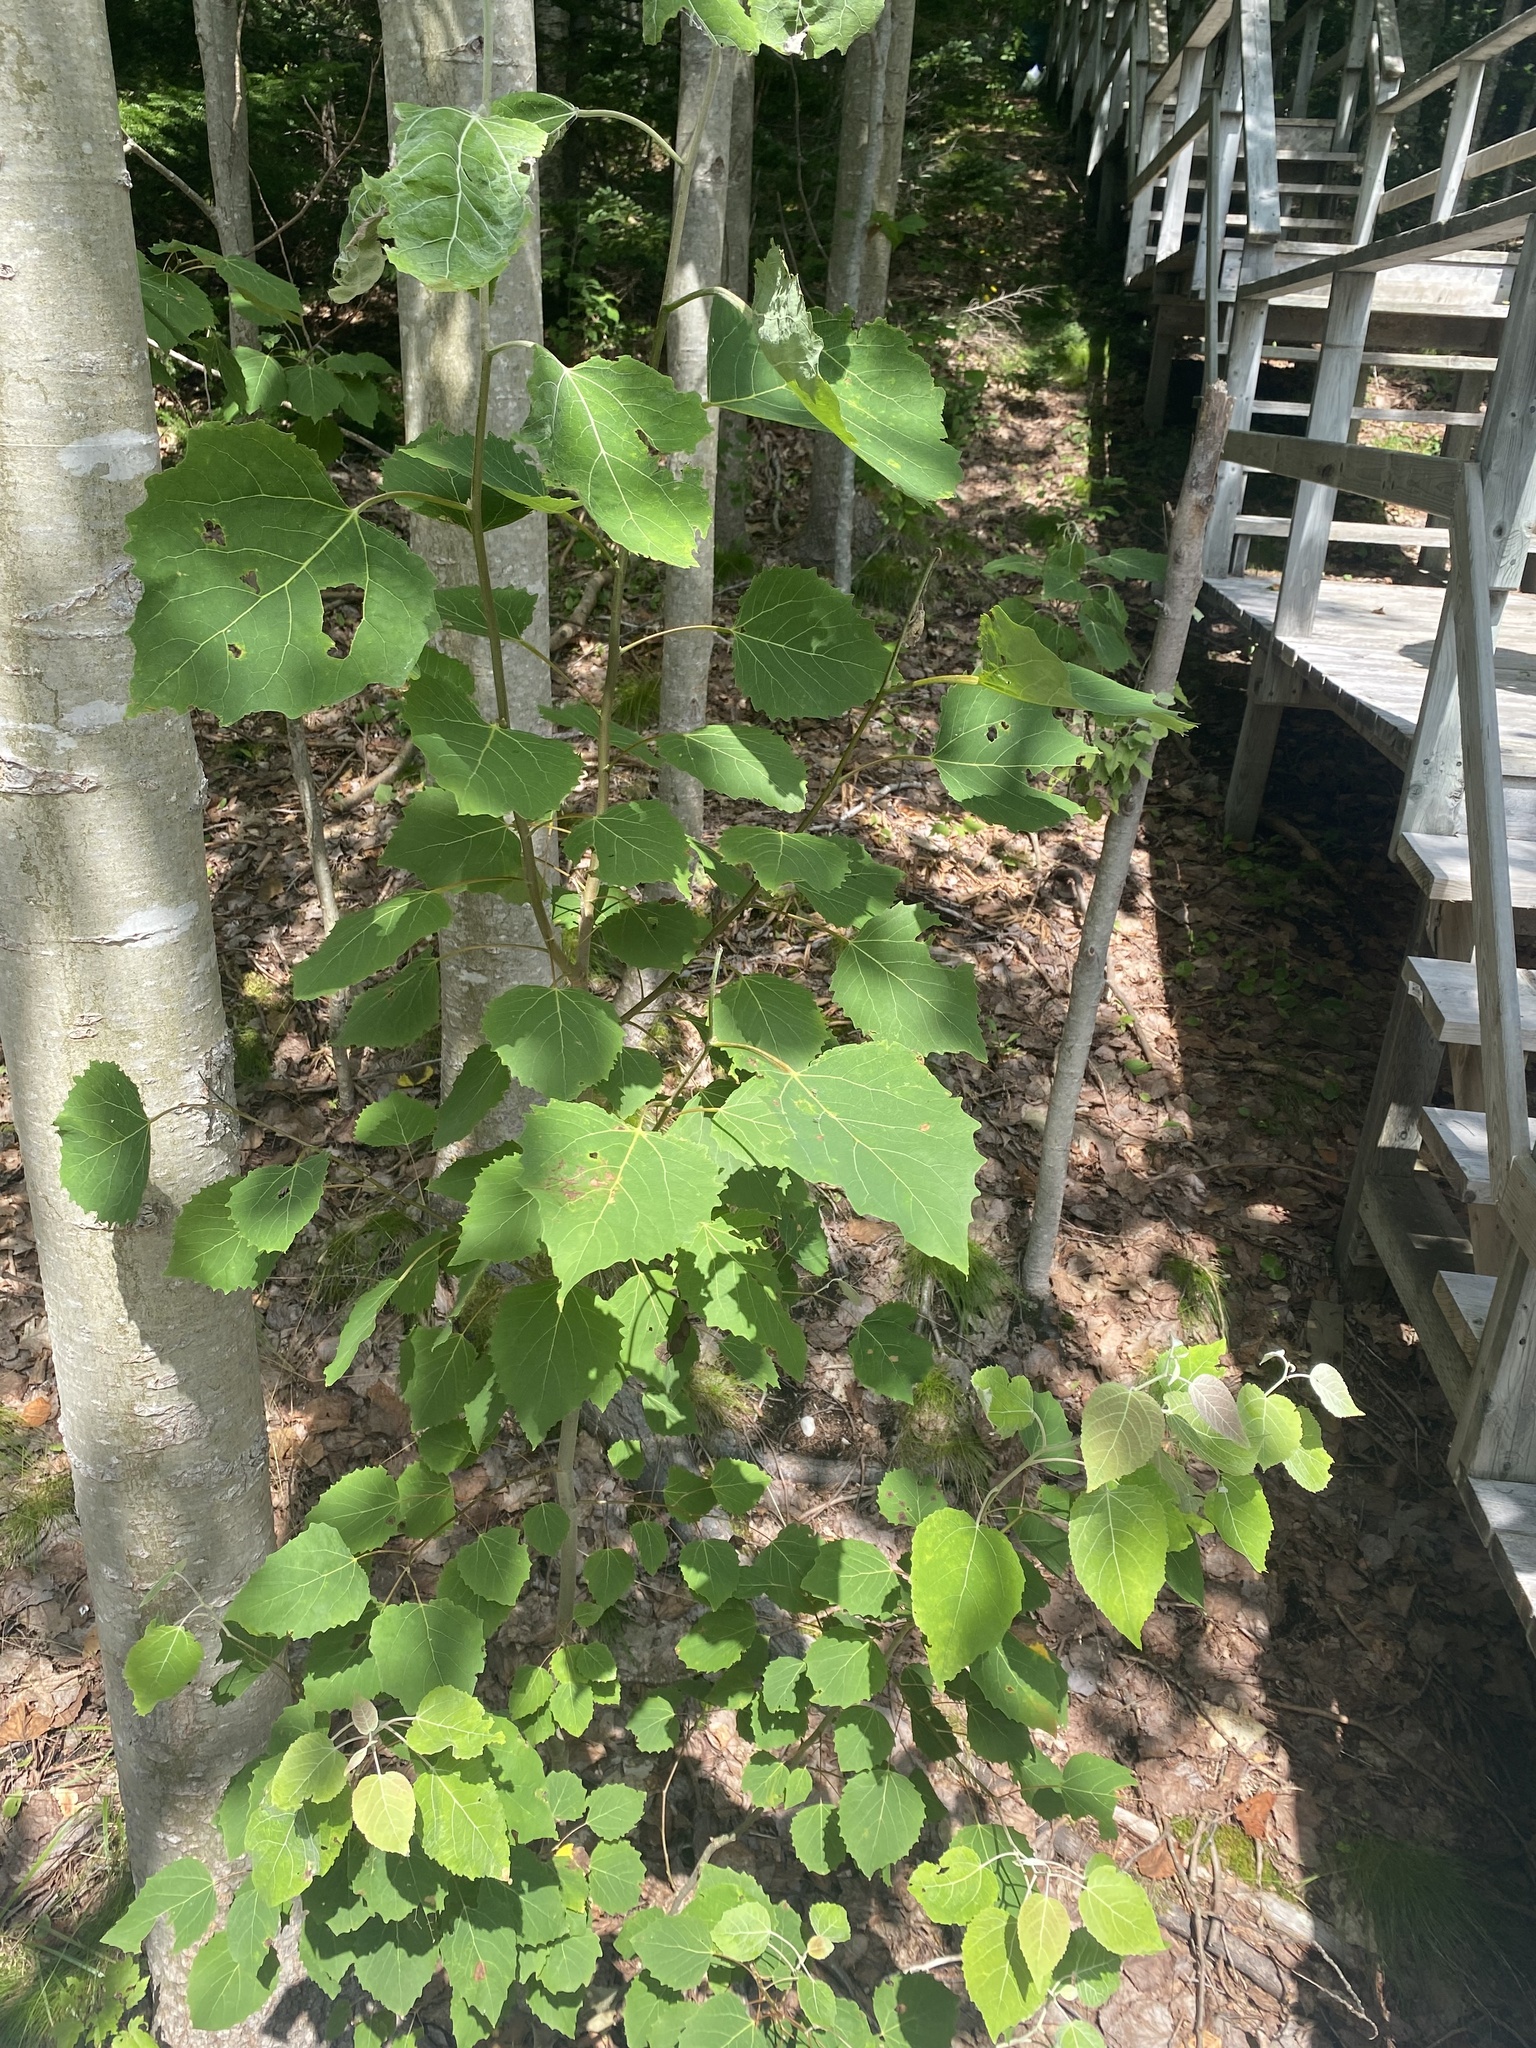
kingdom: Plantae
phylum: Tracheophyta
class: Magnoliopsida
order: Malpighiales
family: Salicaceae
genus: Populus
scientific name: Populus grandidentata
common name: Bigtooth aspen
